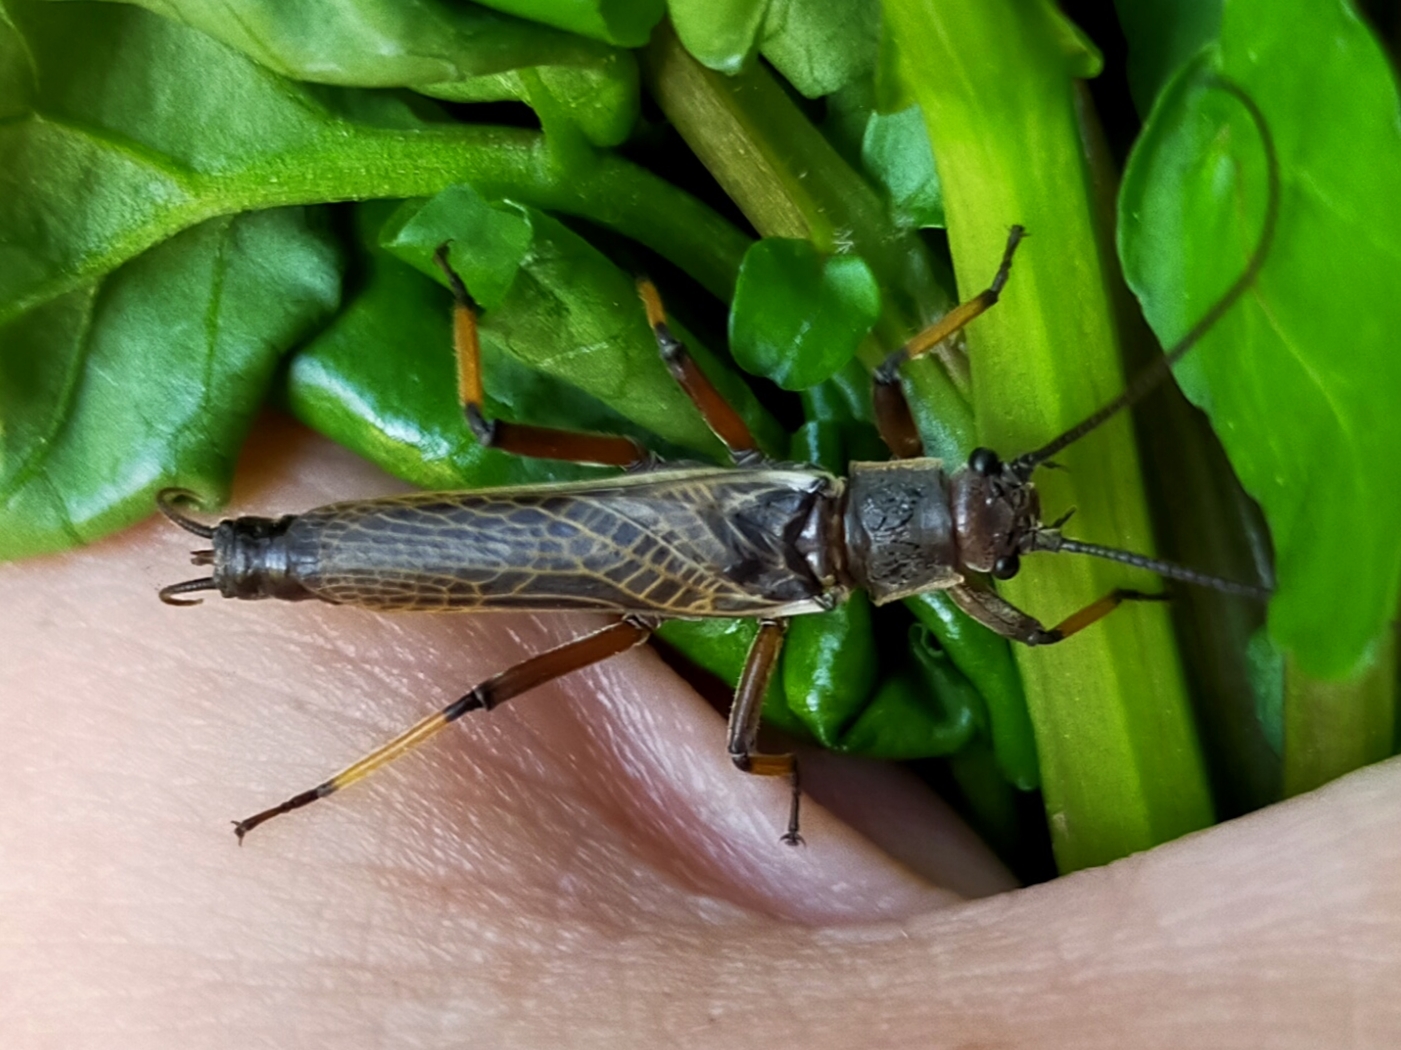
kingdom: Animalia
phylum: Arthropoda
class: Insecta
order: Plecoptera
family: Austroperlidae
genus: Austroperla
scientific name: Austroperla cyrene
